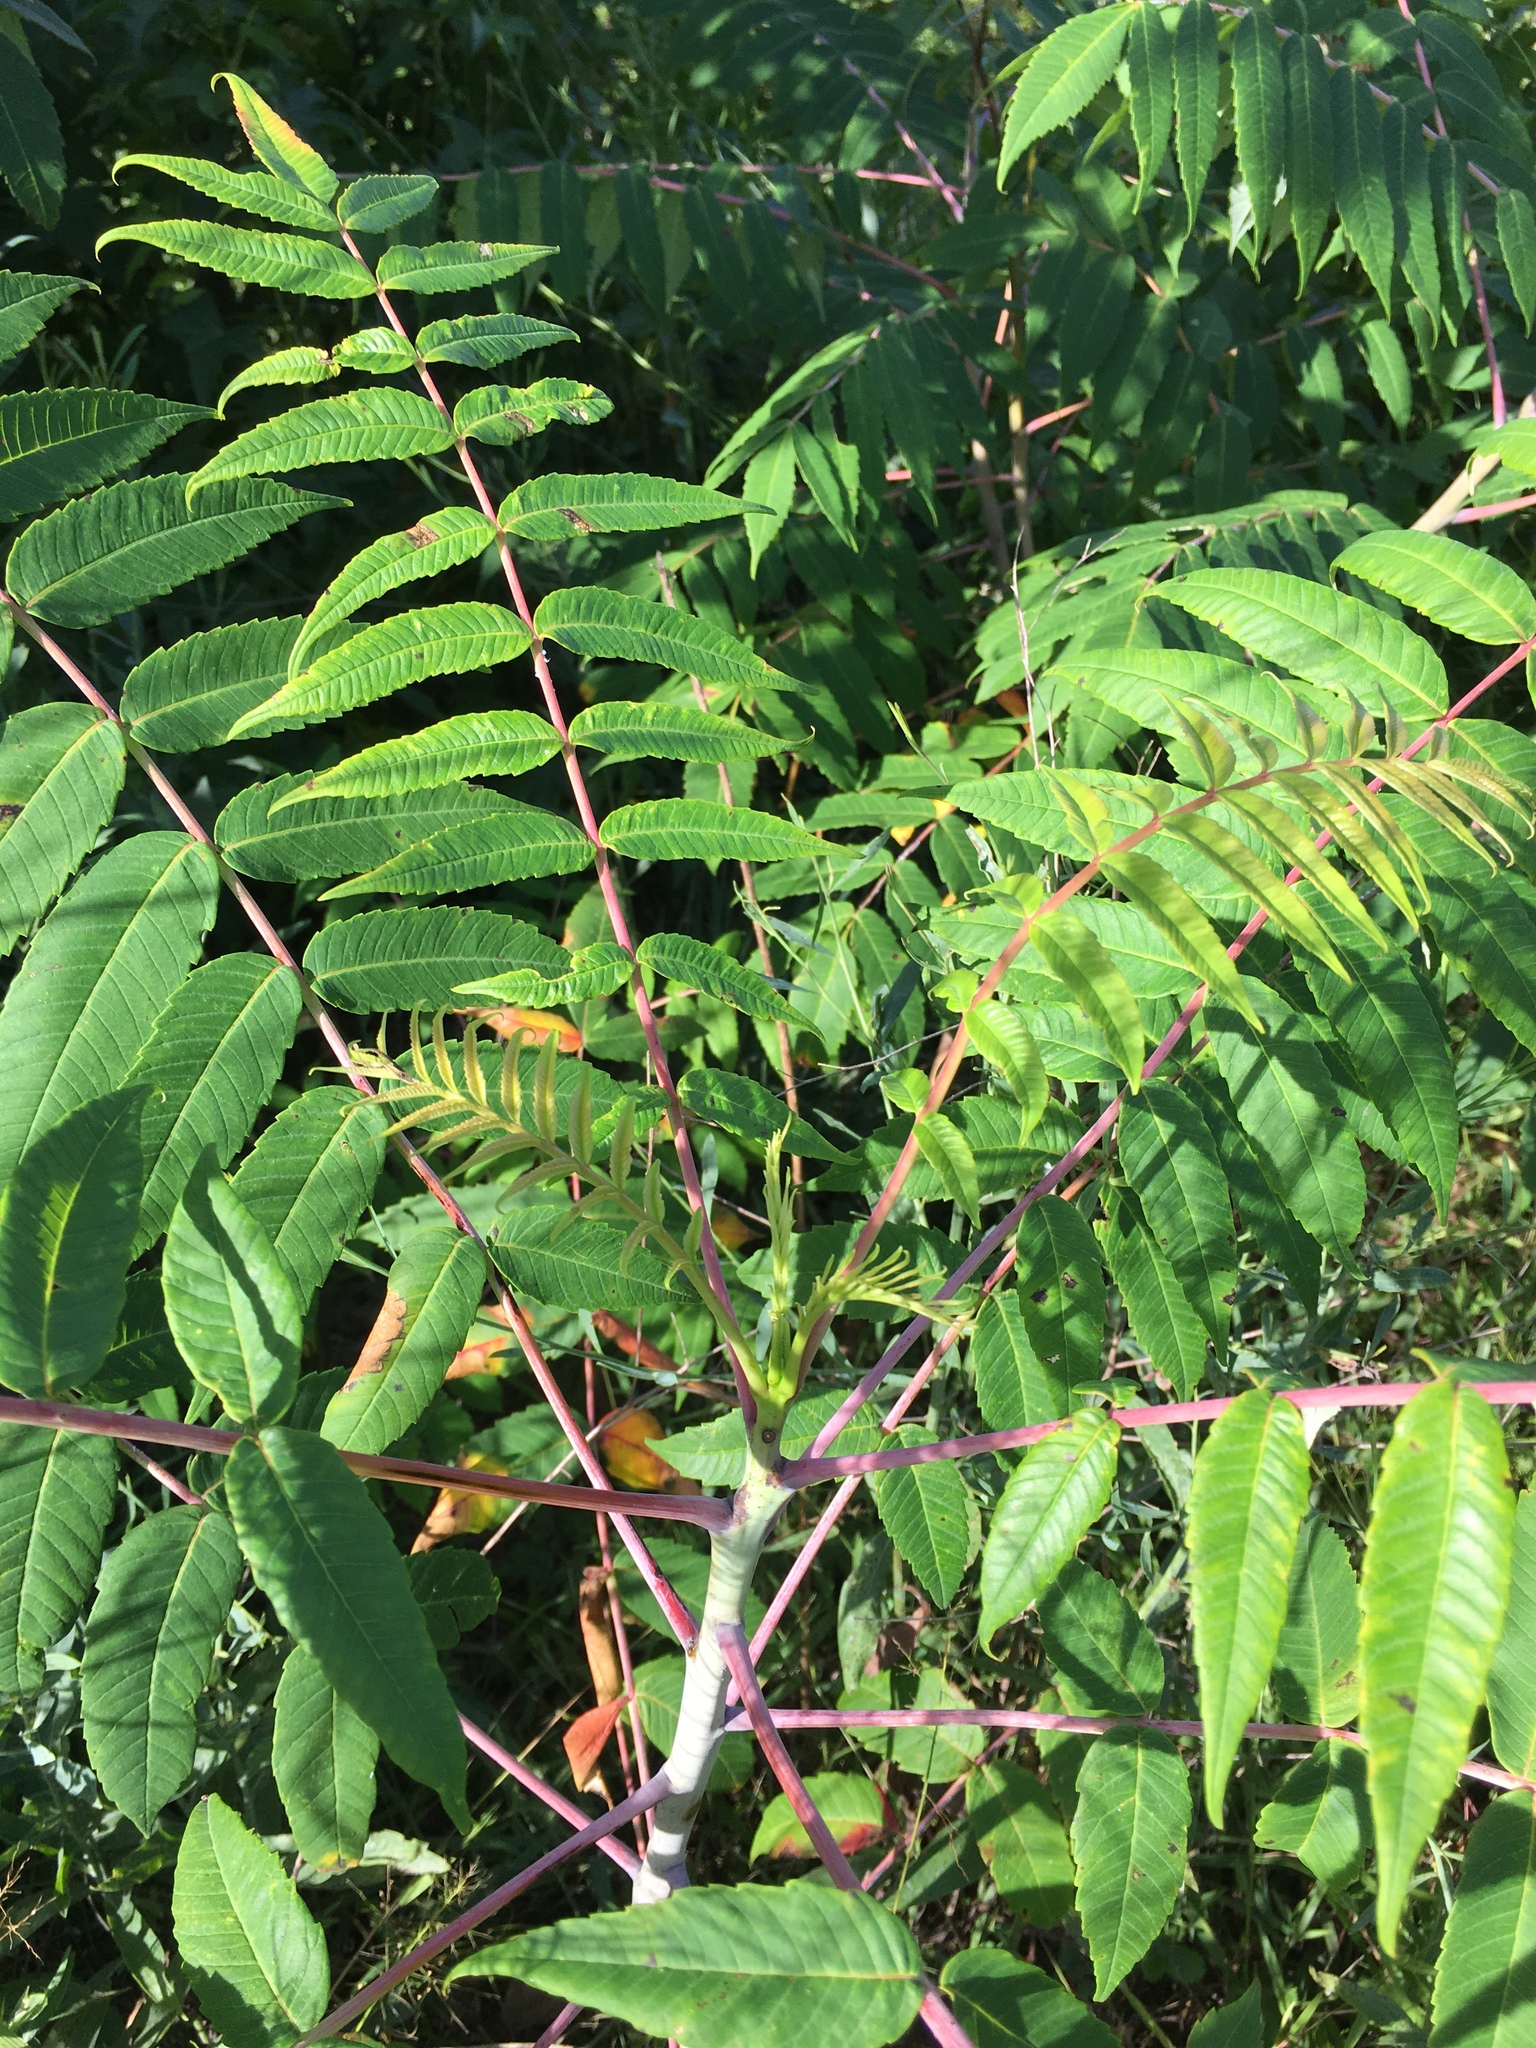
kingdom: Plantae
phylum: Tracheophyta
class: Magnoliopsida
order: Sapindales
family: Anacardiaceae
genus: Rhus
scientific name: Rhus glabra
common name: Scarlet sumac
